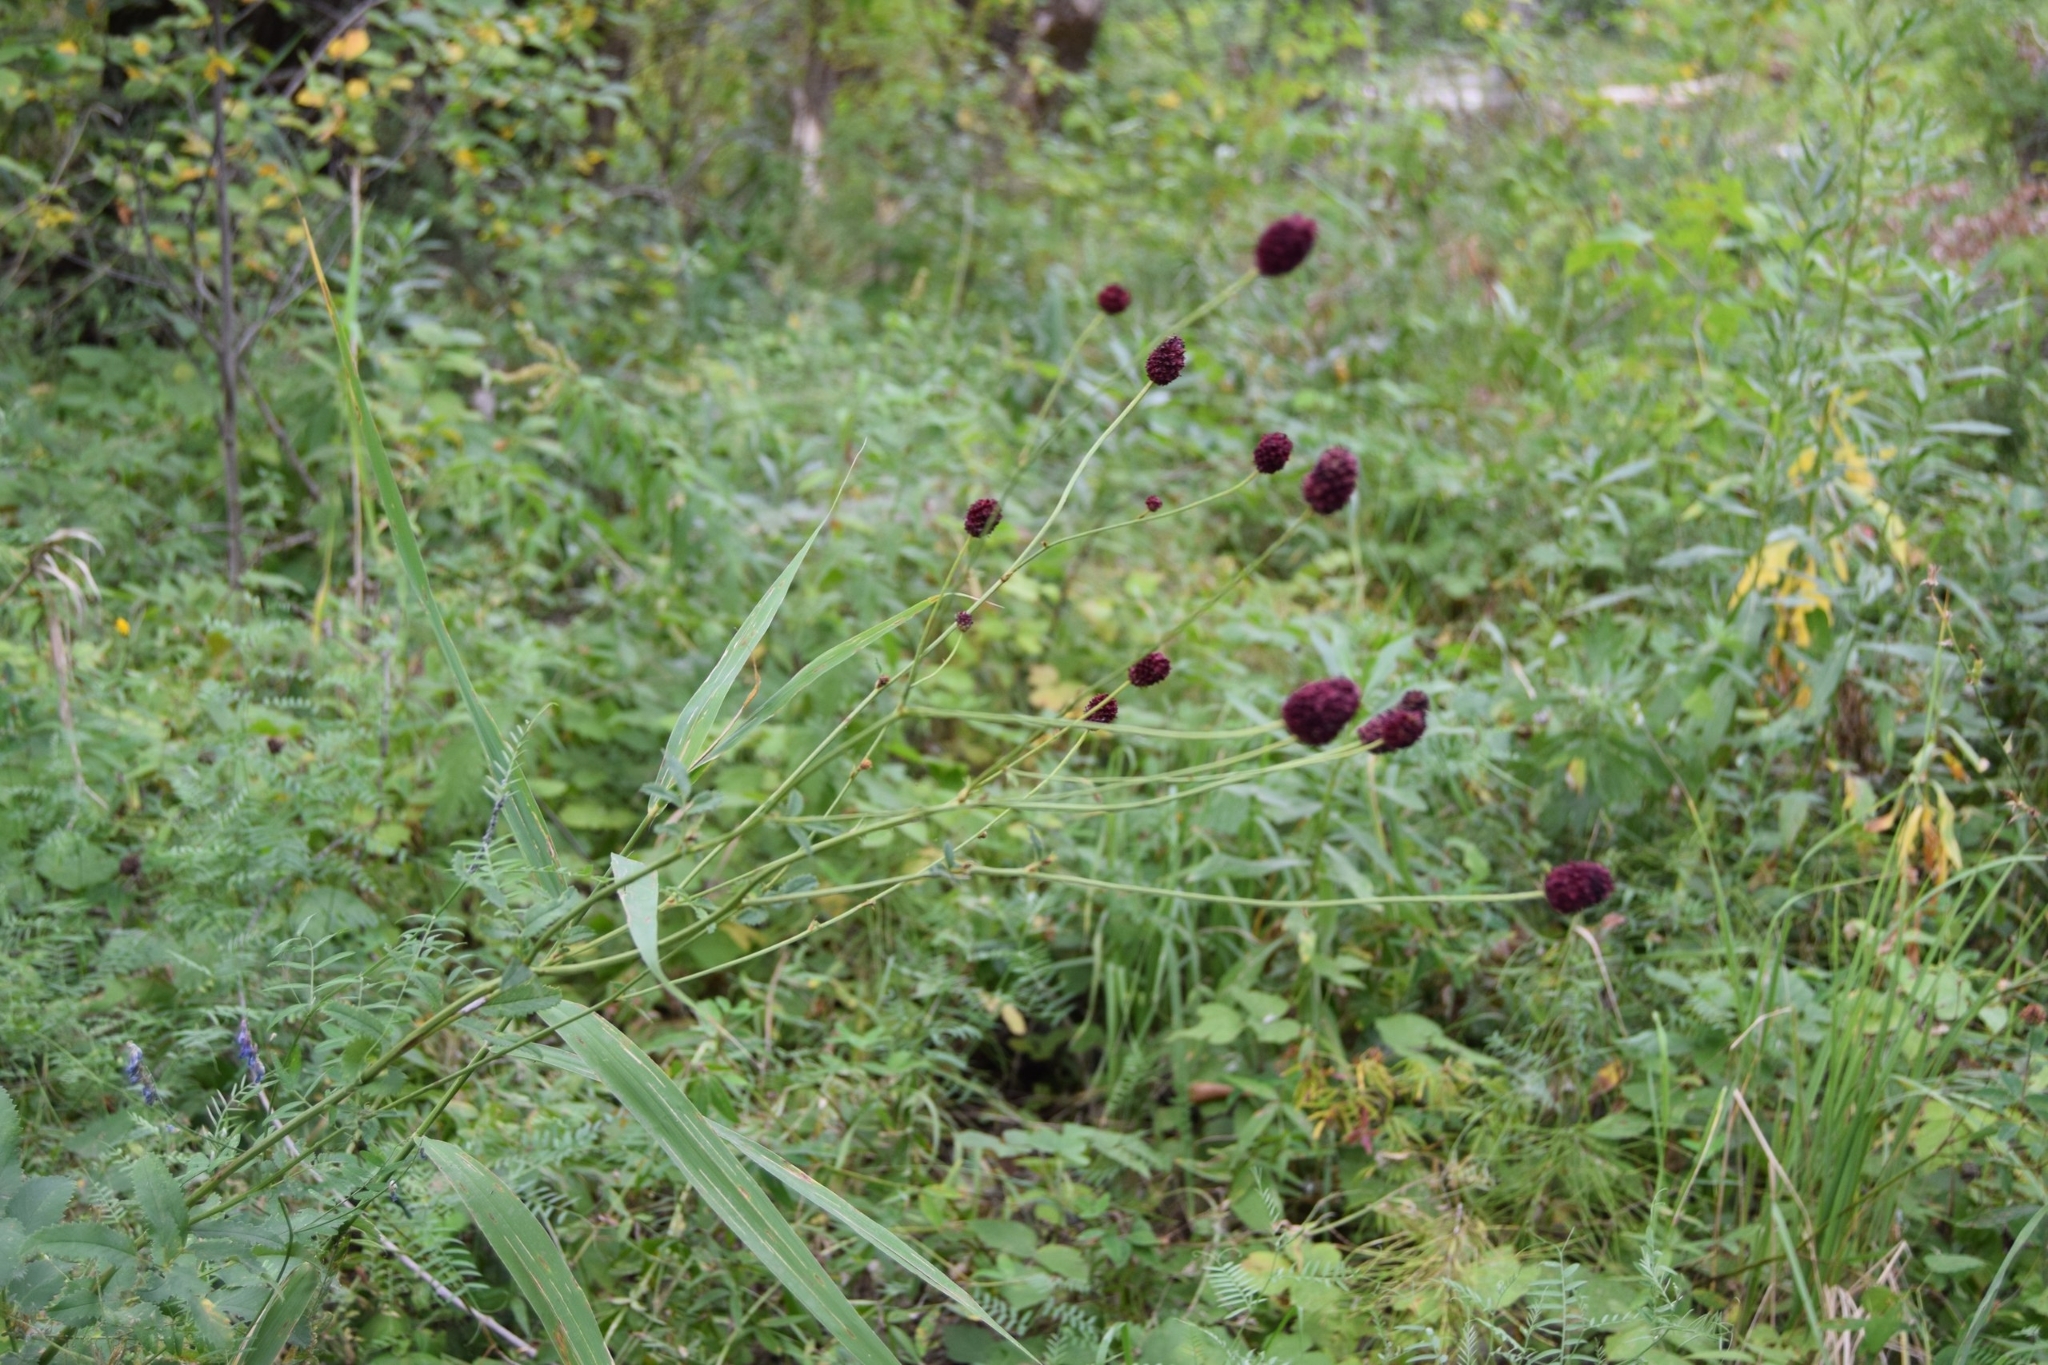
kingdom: Plantae
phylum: Tracheophyta
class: Magnoliopsida
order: Rosales
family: Rosaceae
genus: Sanguisorba
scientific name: Sanguisorba officinalis
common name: Great burnet
